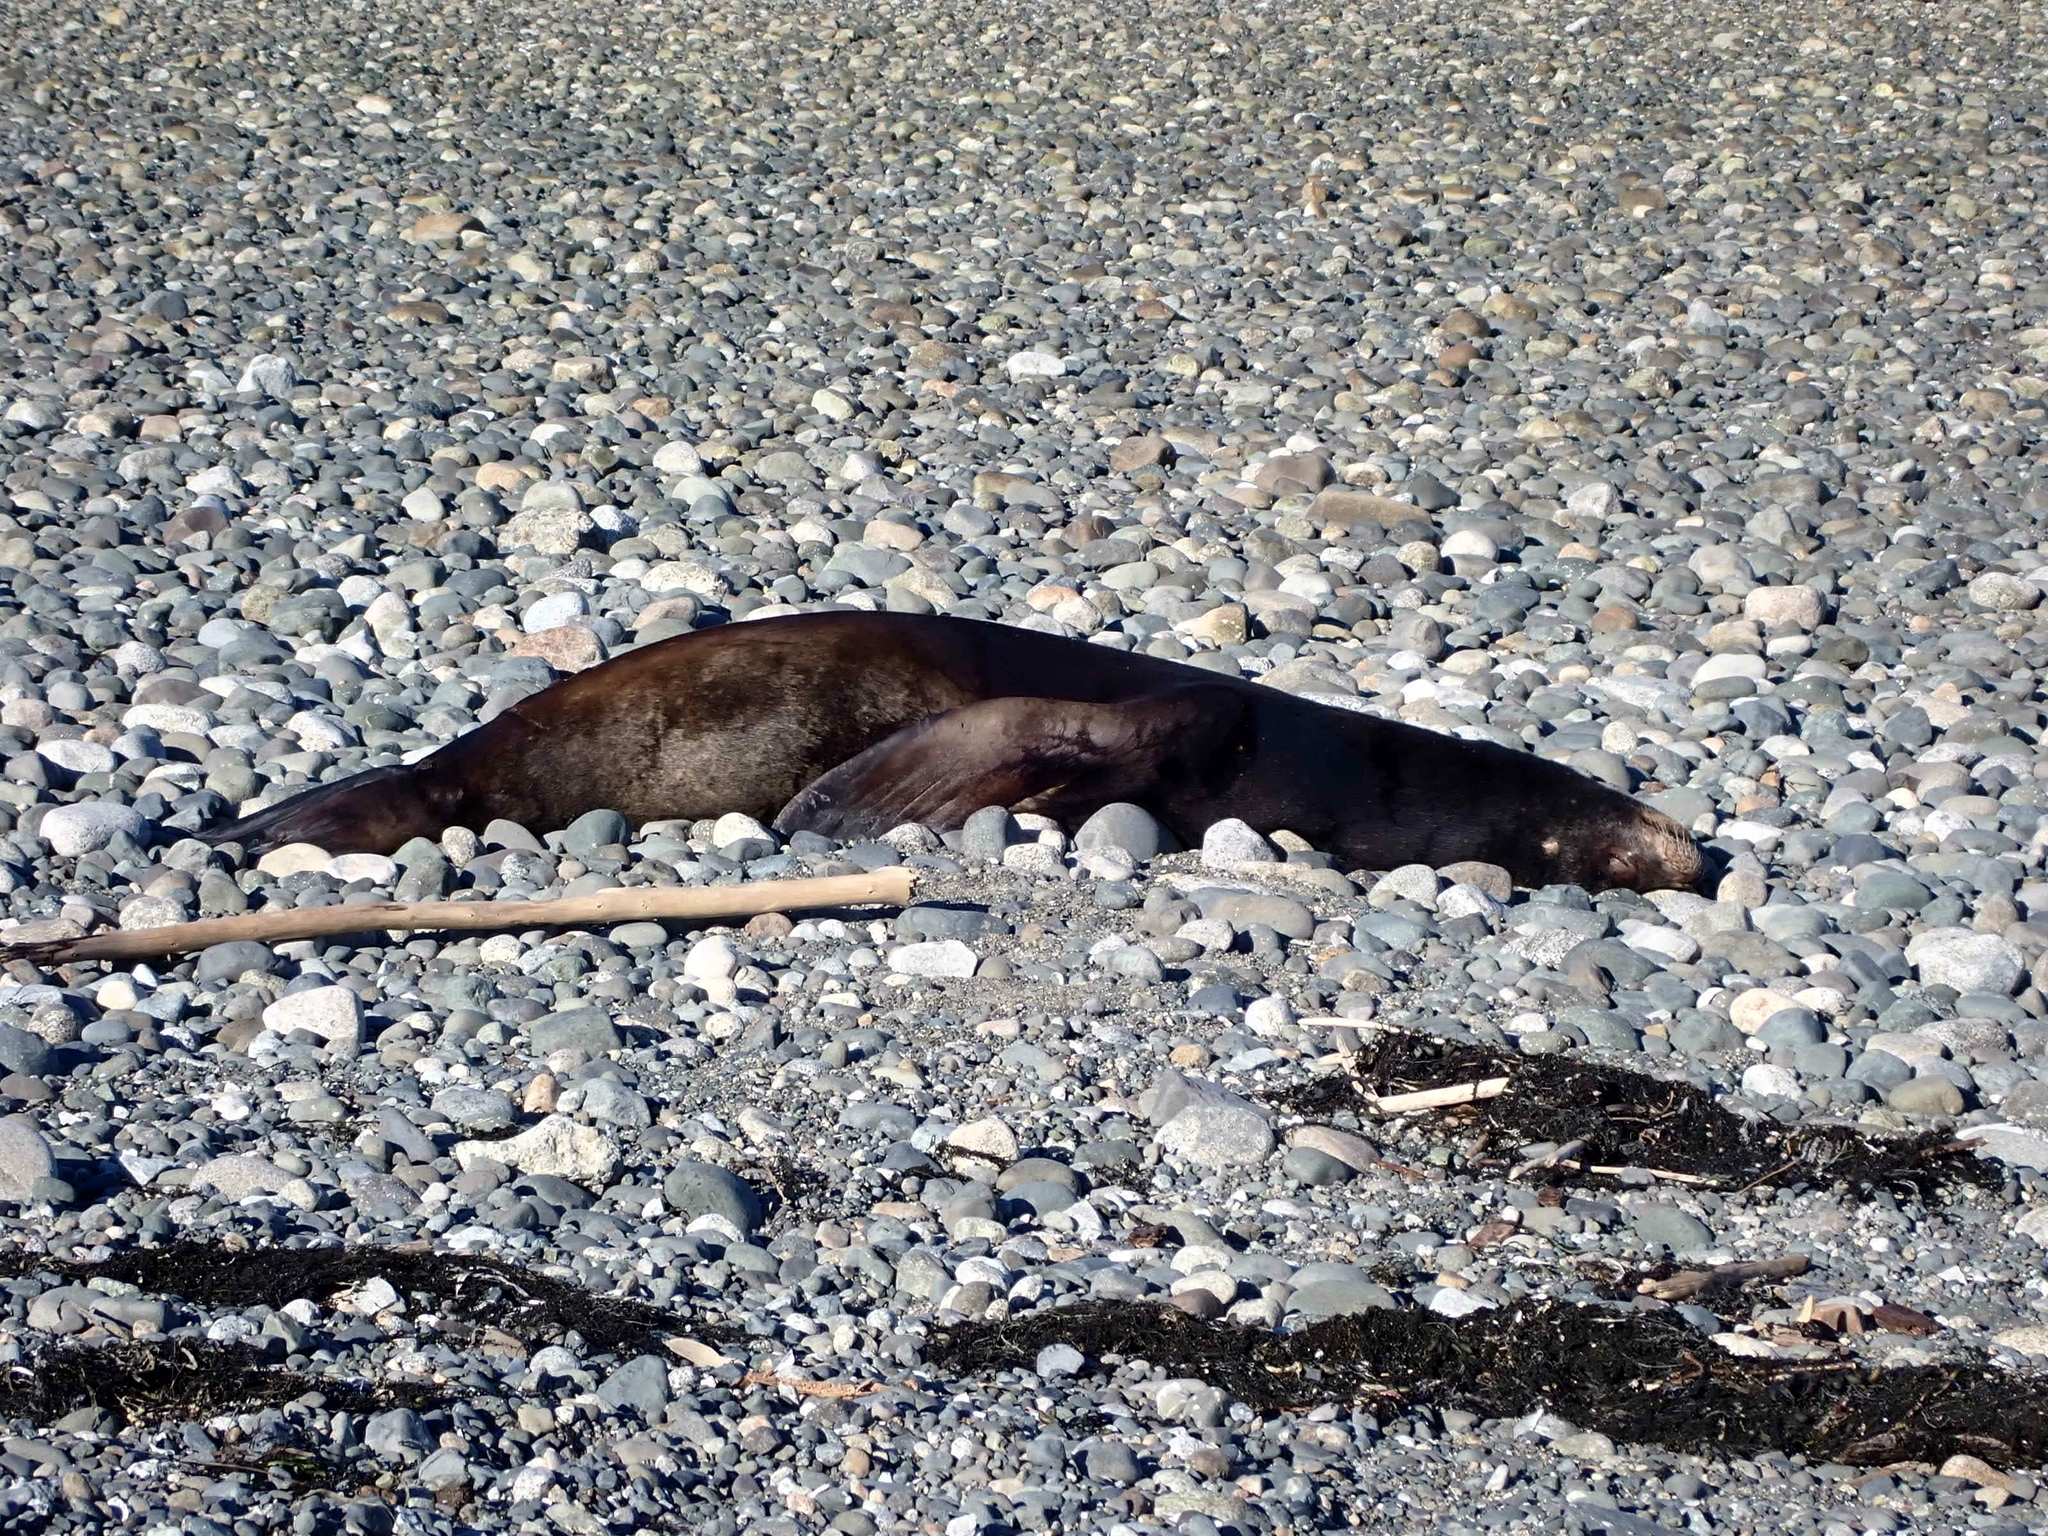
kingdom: Animalia
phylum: Chordata
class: Mammalia
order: Carnivora
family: Otariidae
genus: Zalophus
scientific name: Zalophus californianus
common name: California sea lion
